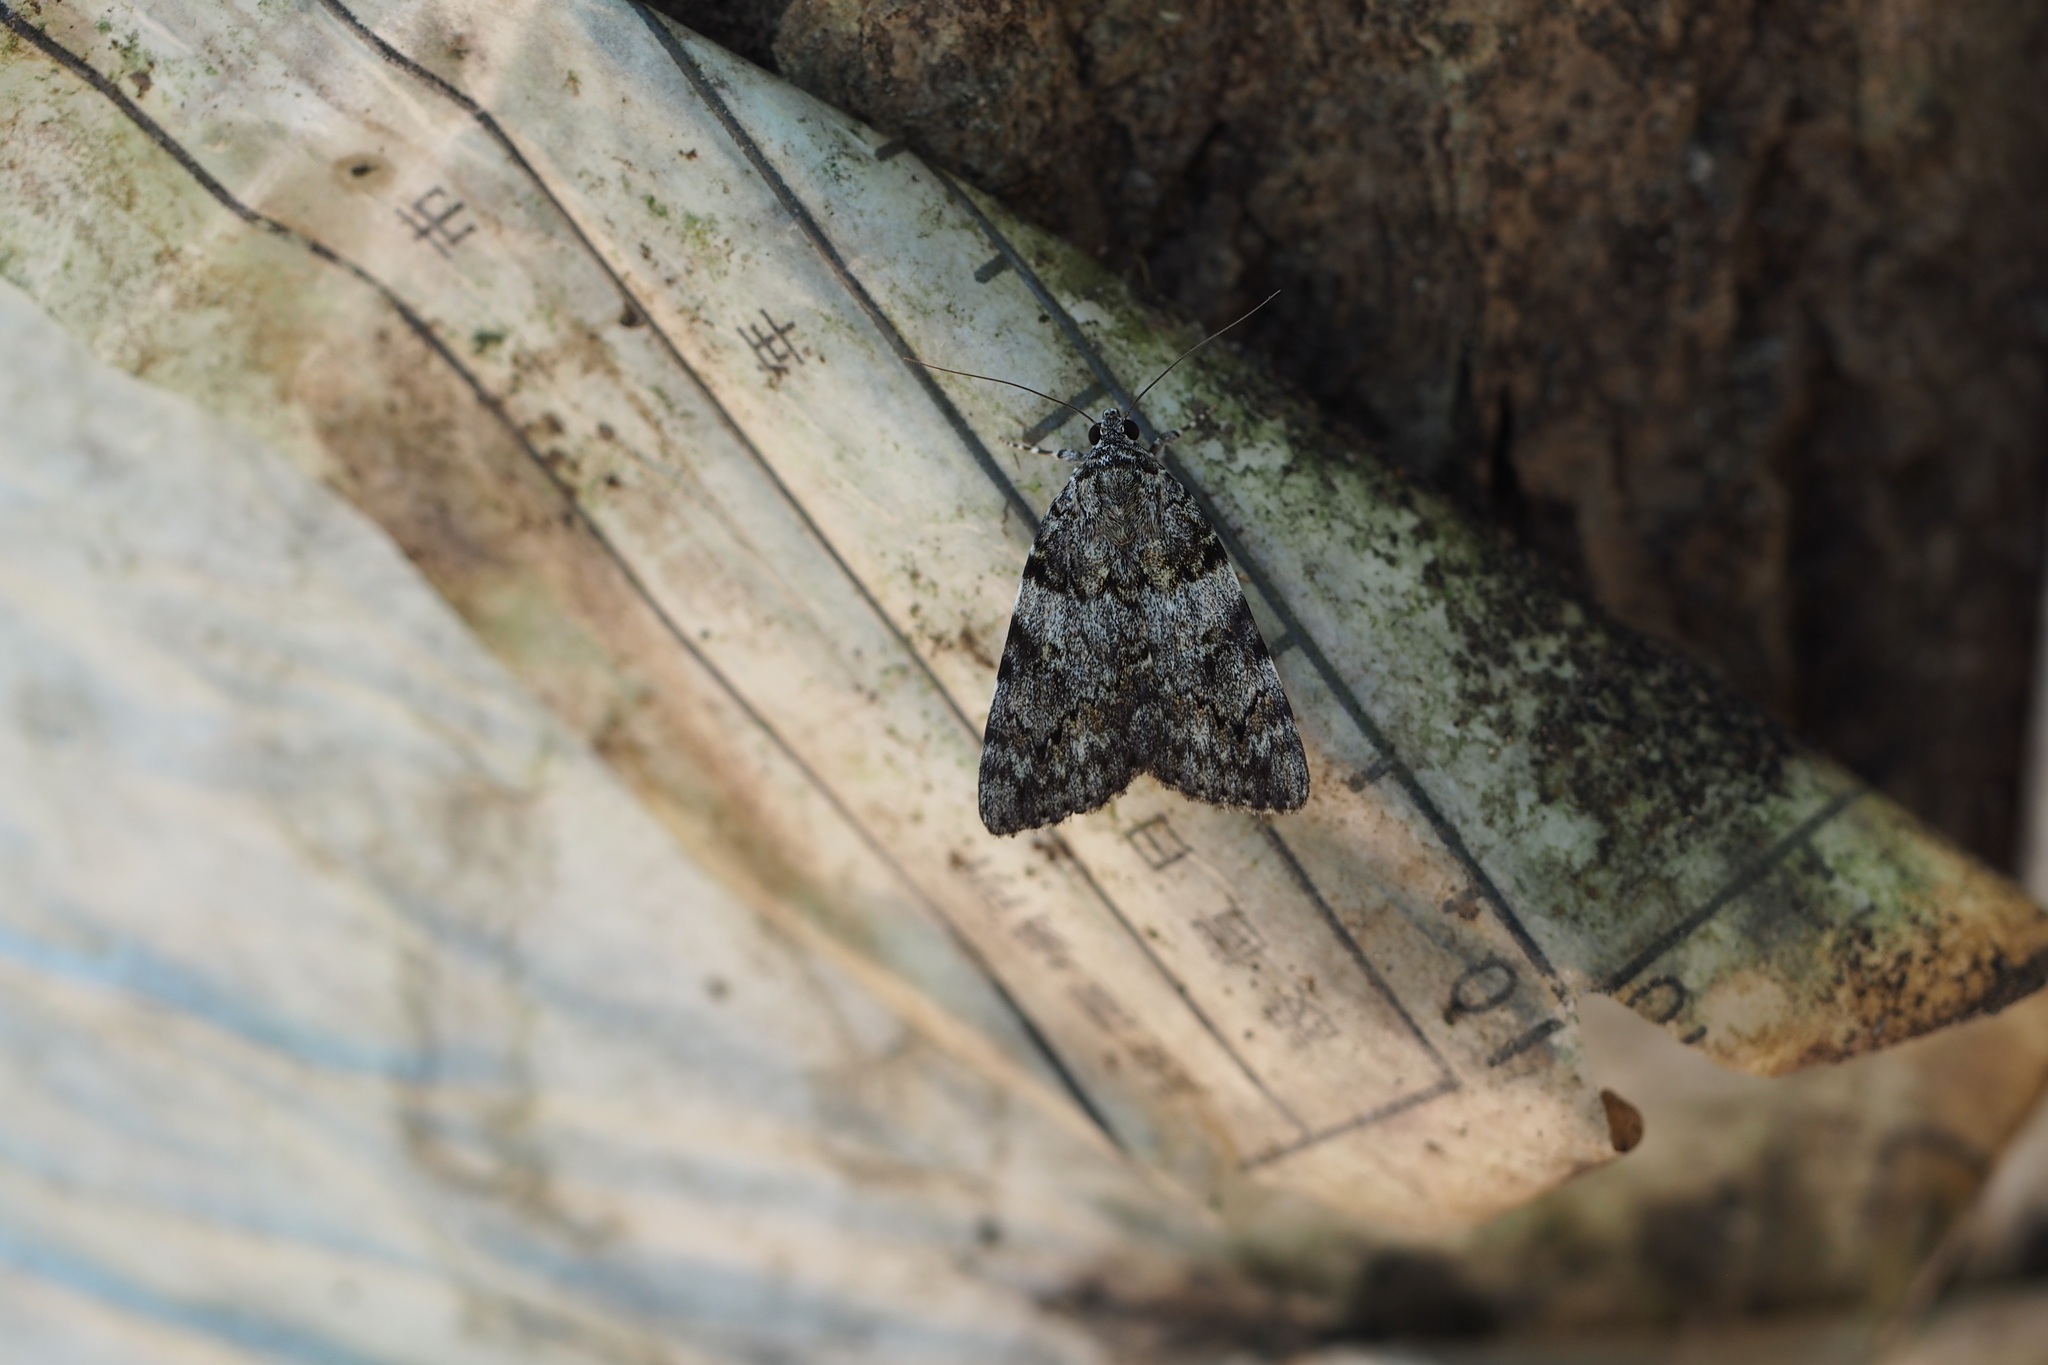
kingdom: Animalia
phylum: Arthropoda
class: Insecta
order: Lepidoptera
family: Erebidae
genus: Catocala
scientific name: Catocala duplicata
